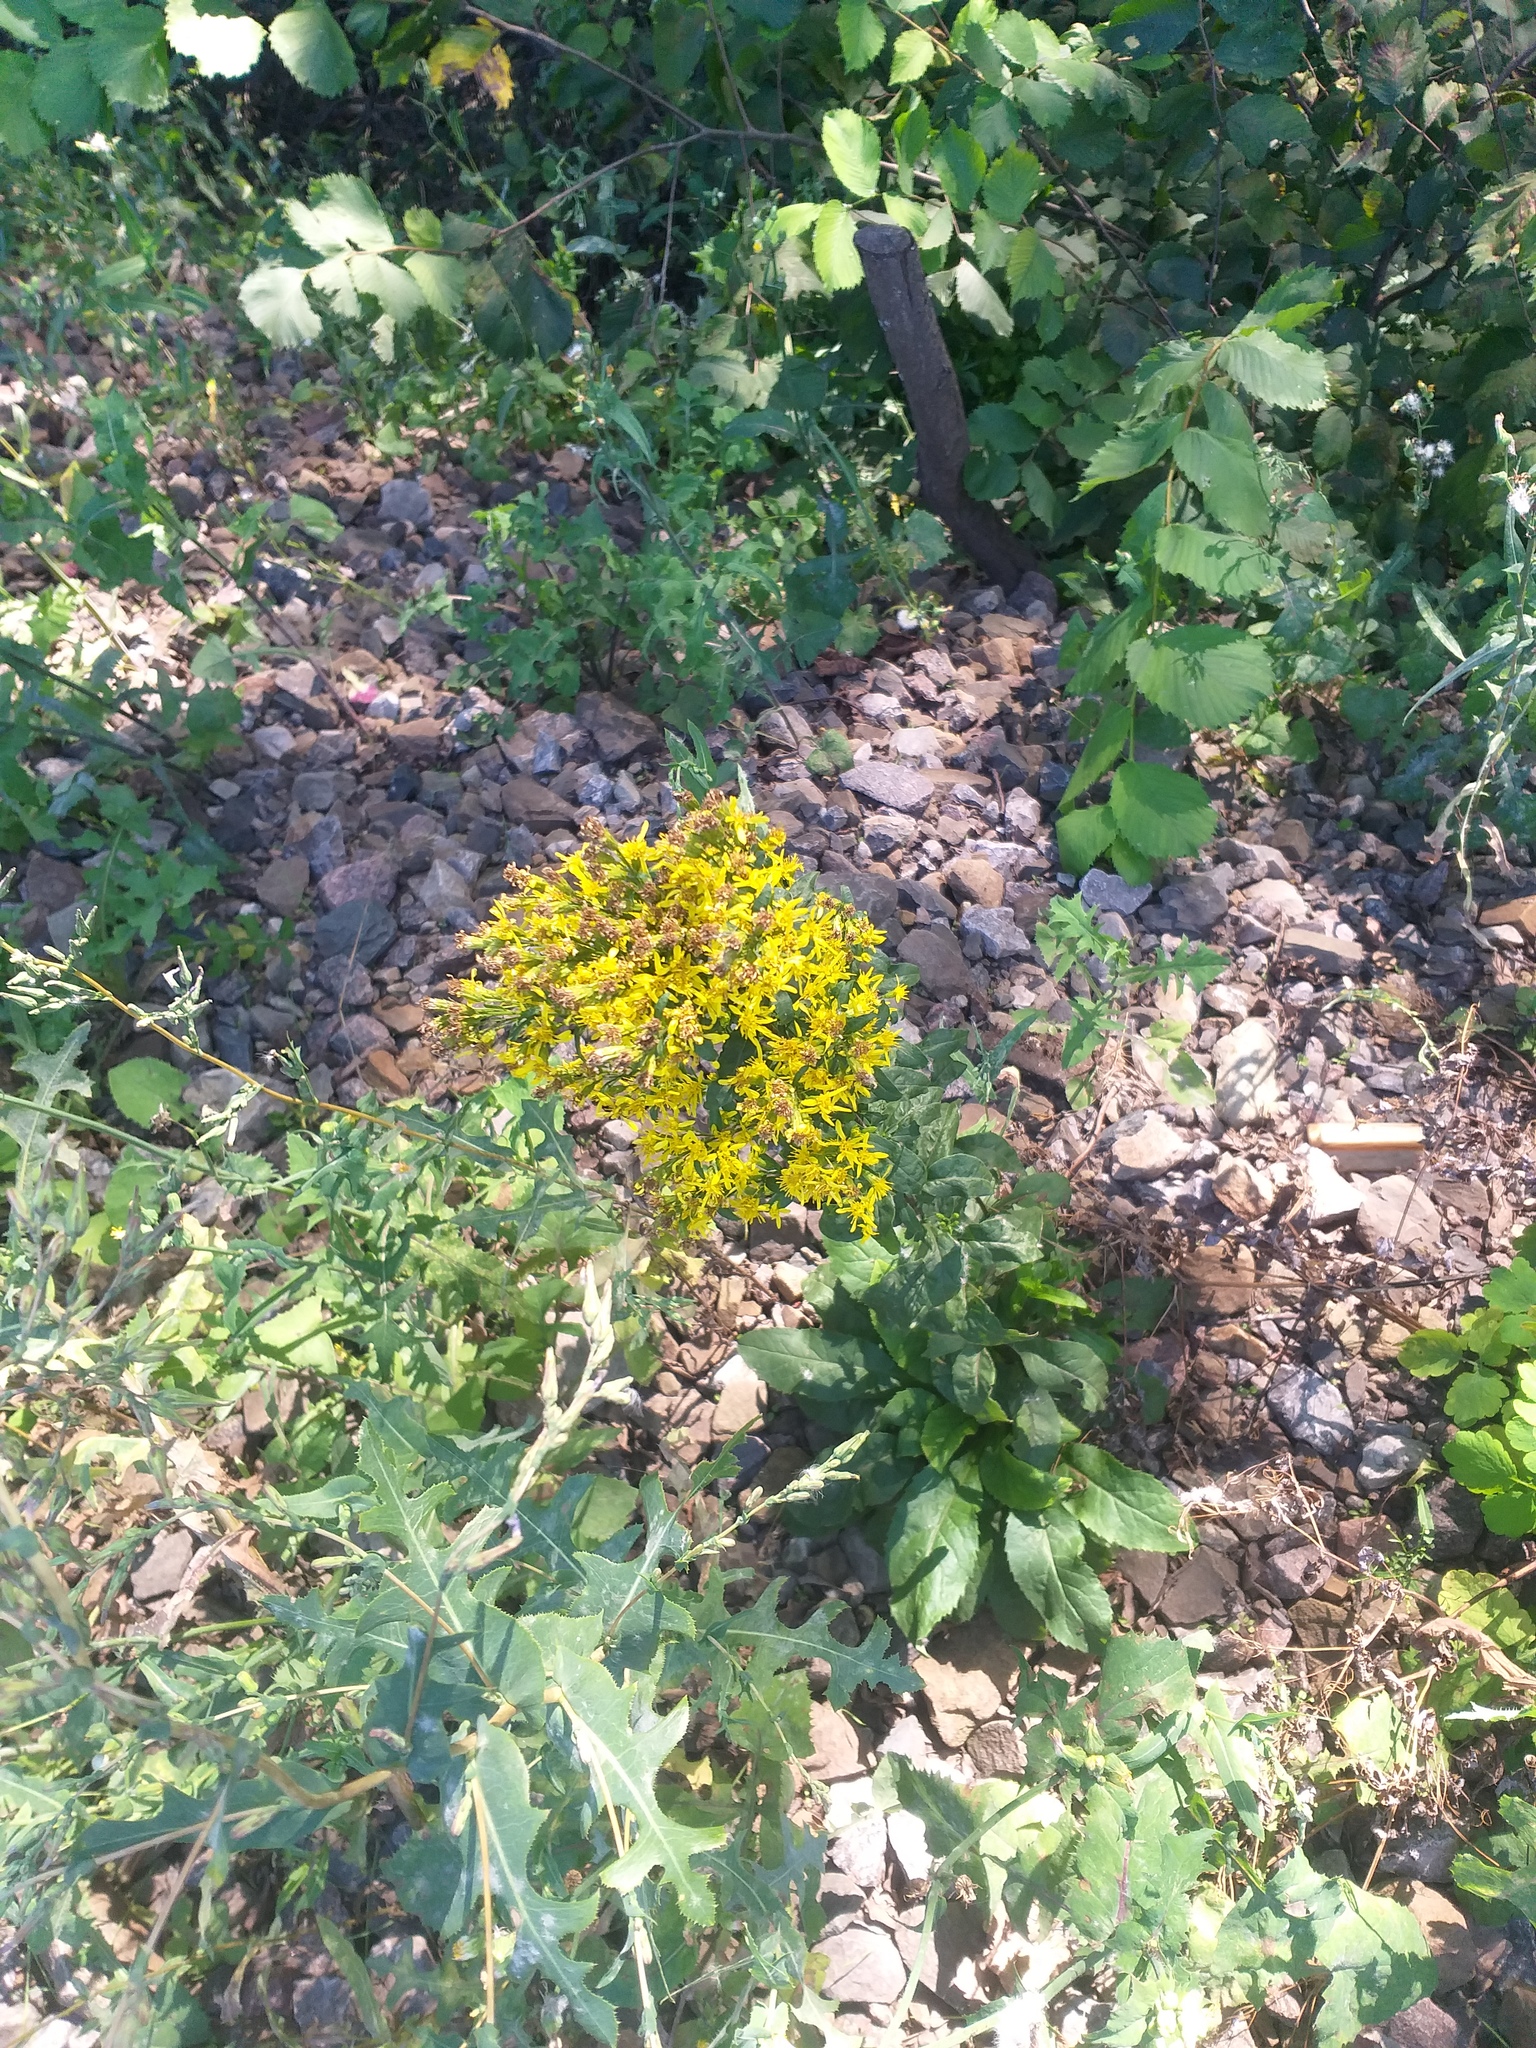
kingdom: Plantae
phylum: Tracheophyta
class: Magnoliopsida
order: Asterales
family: Asteraceae
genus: Solidago
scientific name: Solidago virgaurea
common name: Goldenrod
